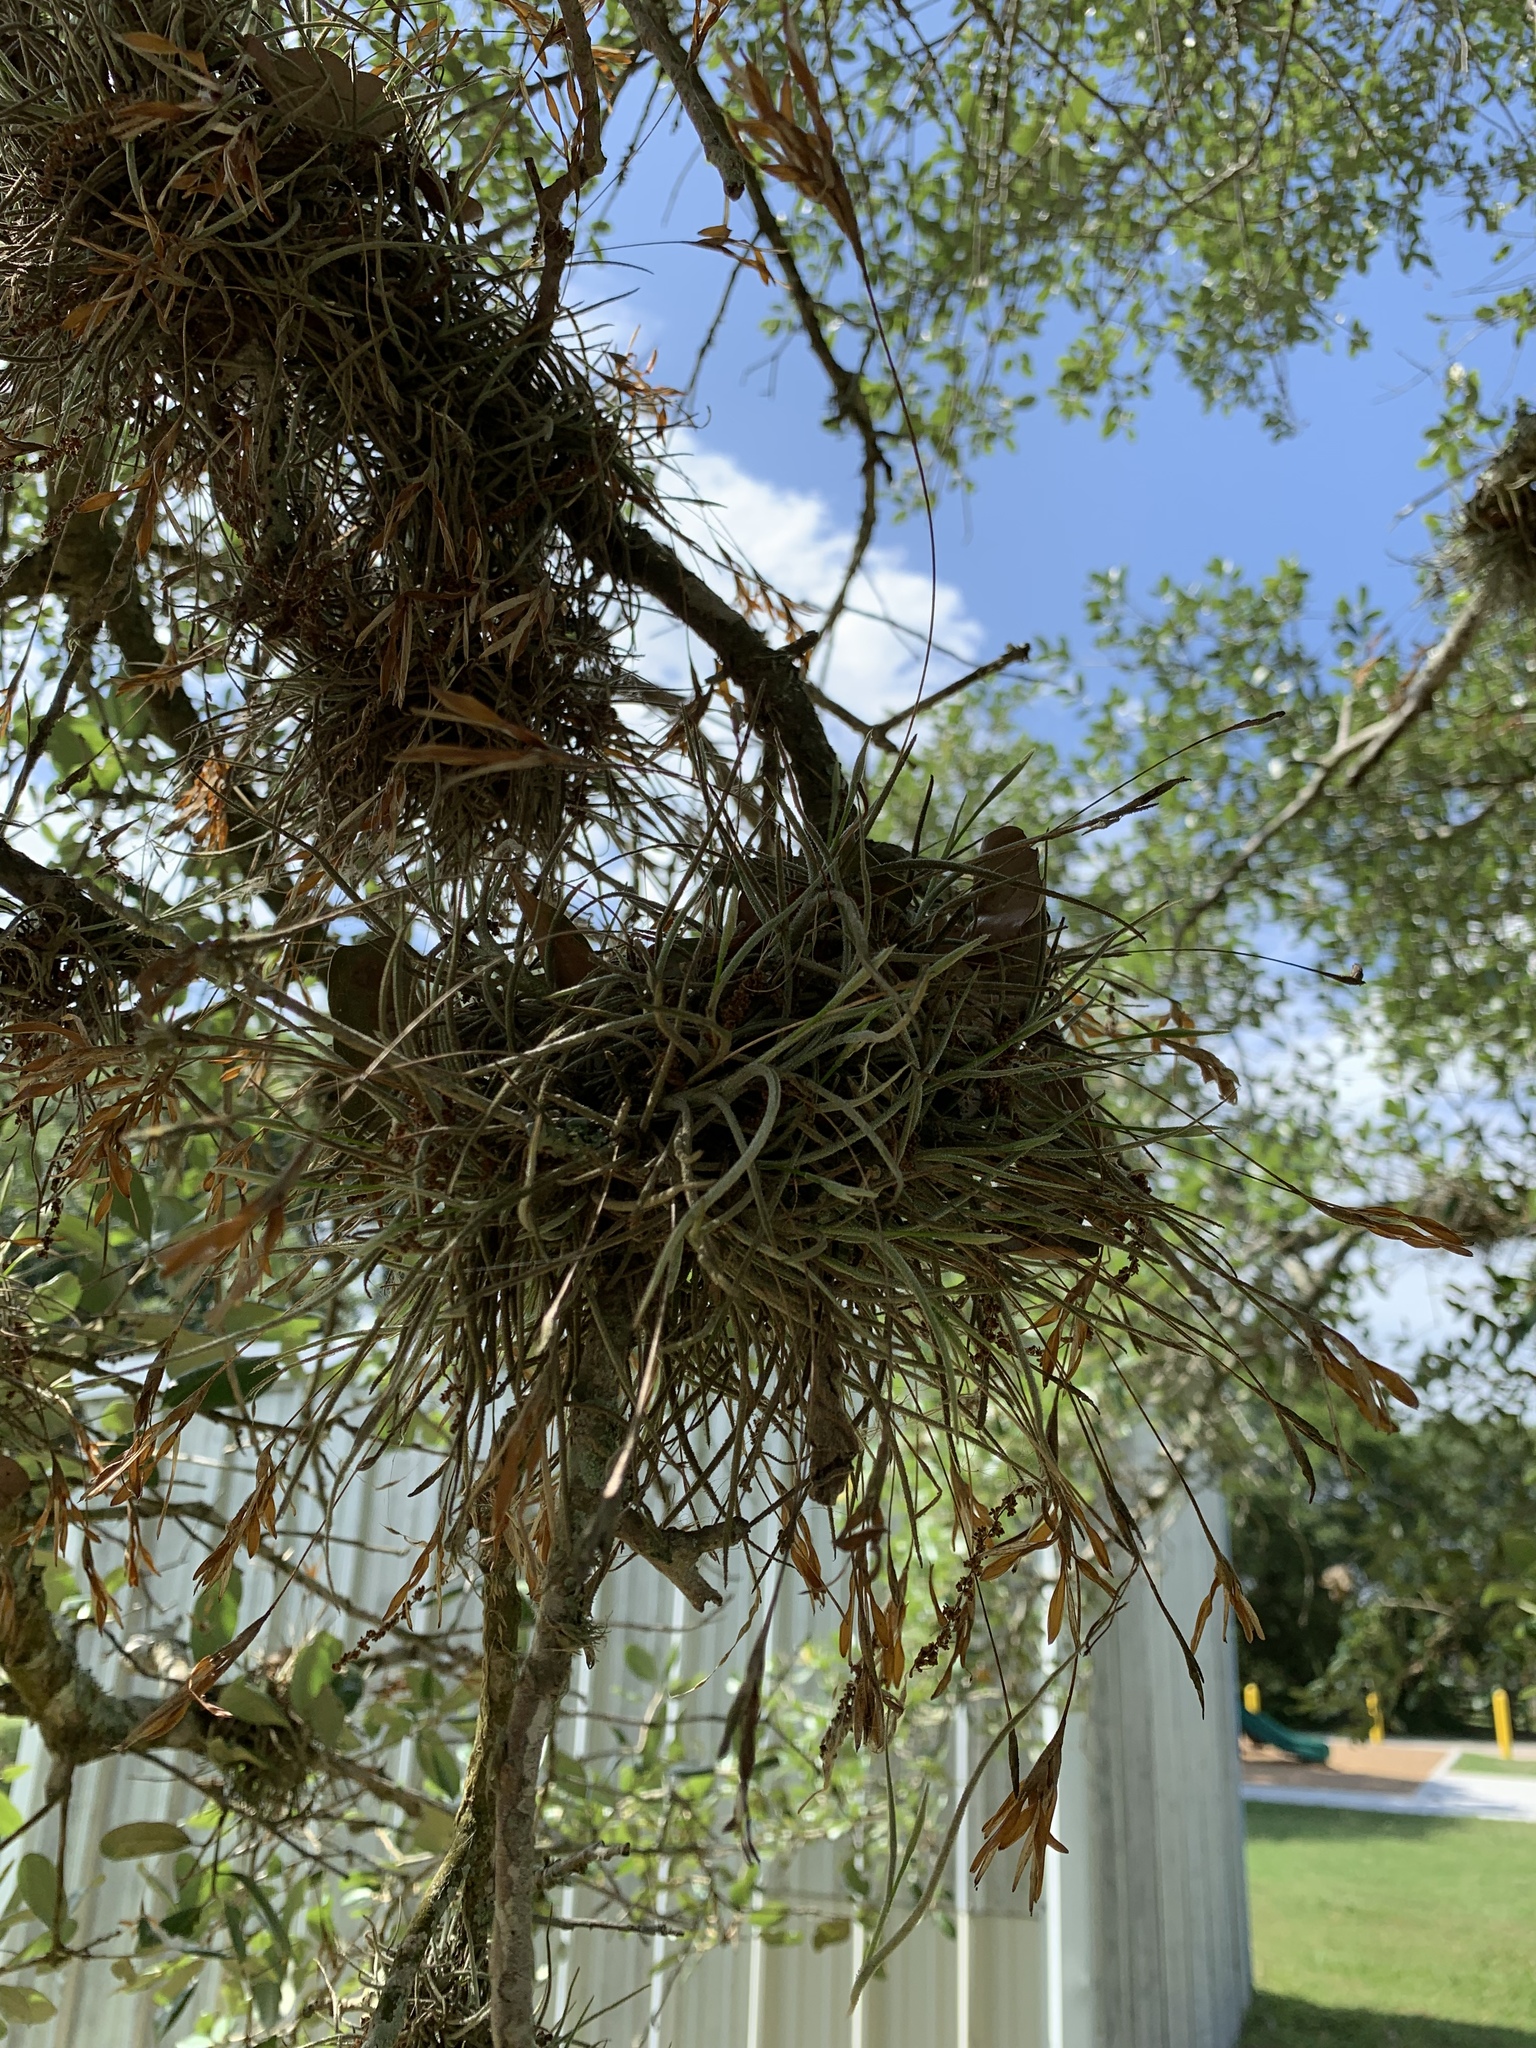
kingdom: Plantae
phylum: Tracheophyta
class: Liliopsida
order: Poales
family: Bromeliaceae
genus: Tillandsia
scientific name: Tillandsia recurvata
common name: Small ballmoss
